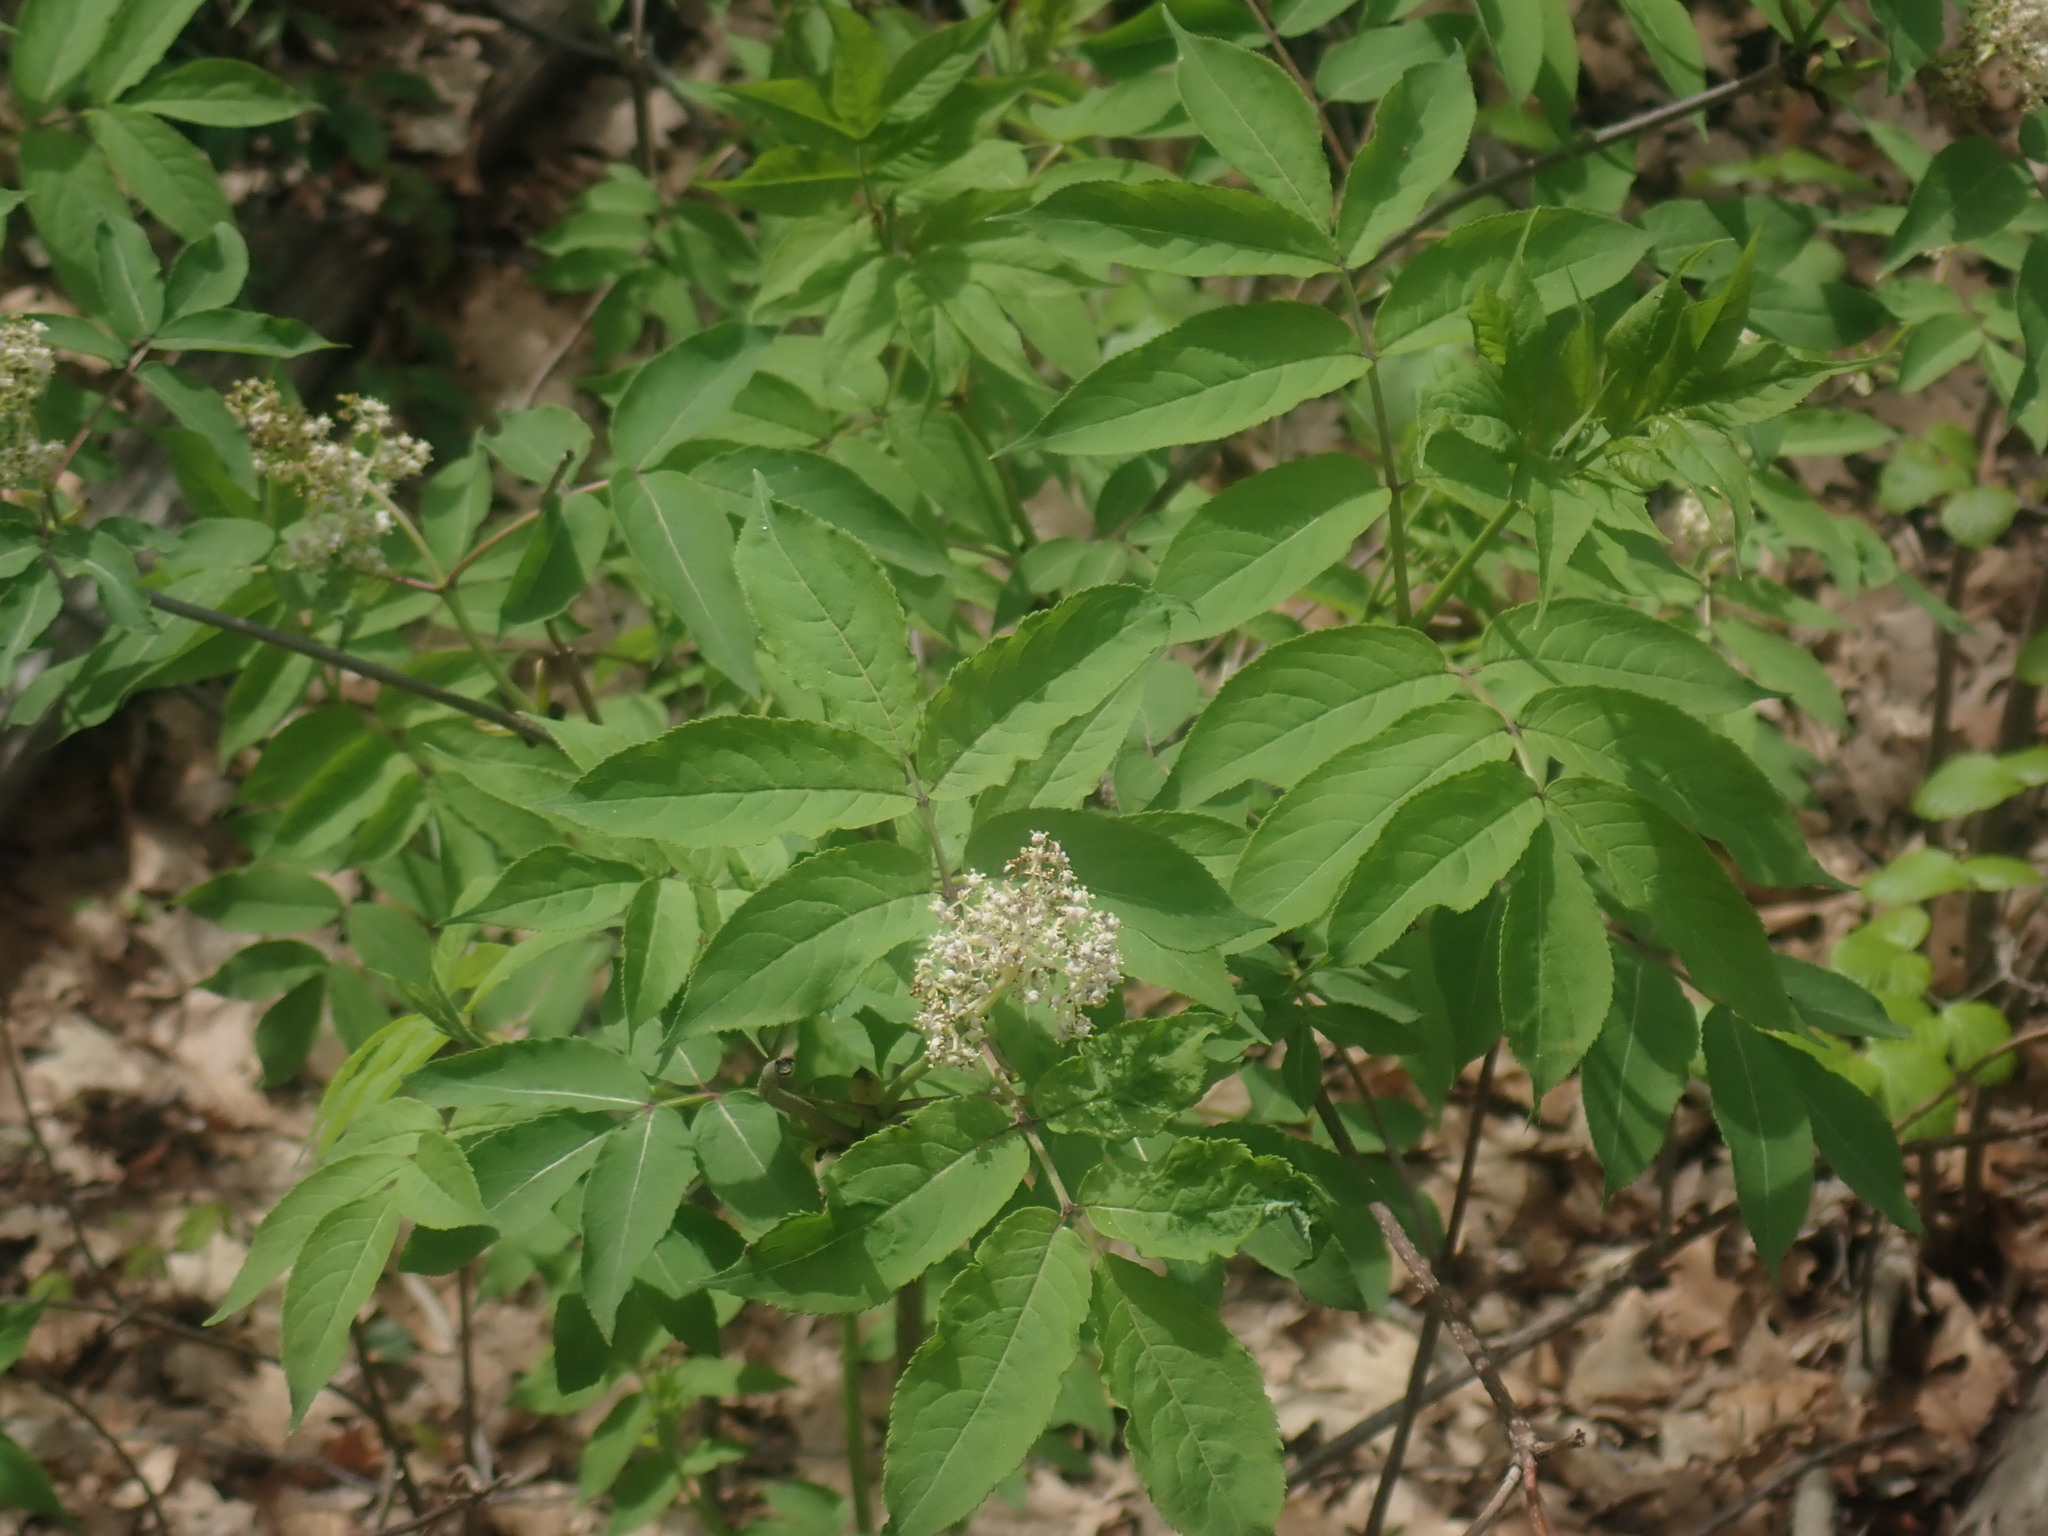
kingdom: Plantae
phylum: Tracheophyta
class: Magnoliopsida
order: Dipsacales
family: Viburnaceae
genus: Sambucus
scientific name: Sambucus racemosa
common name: Red-berried elder
